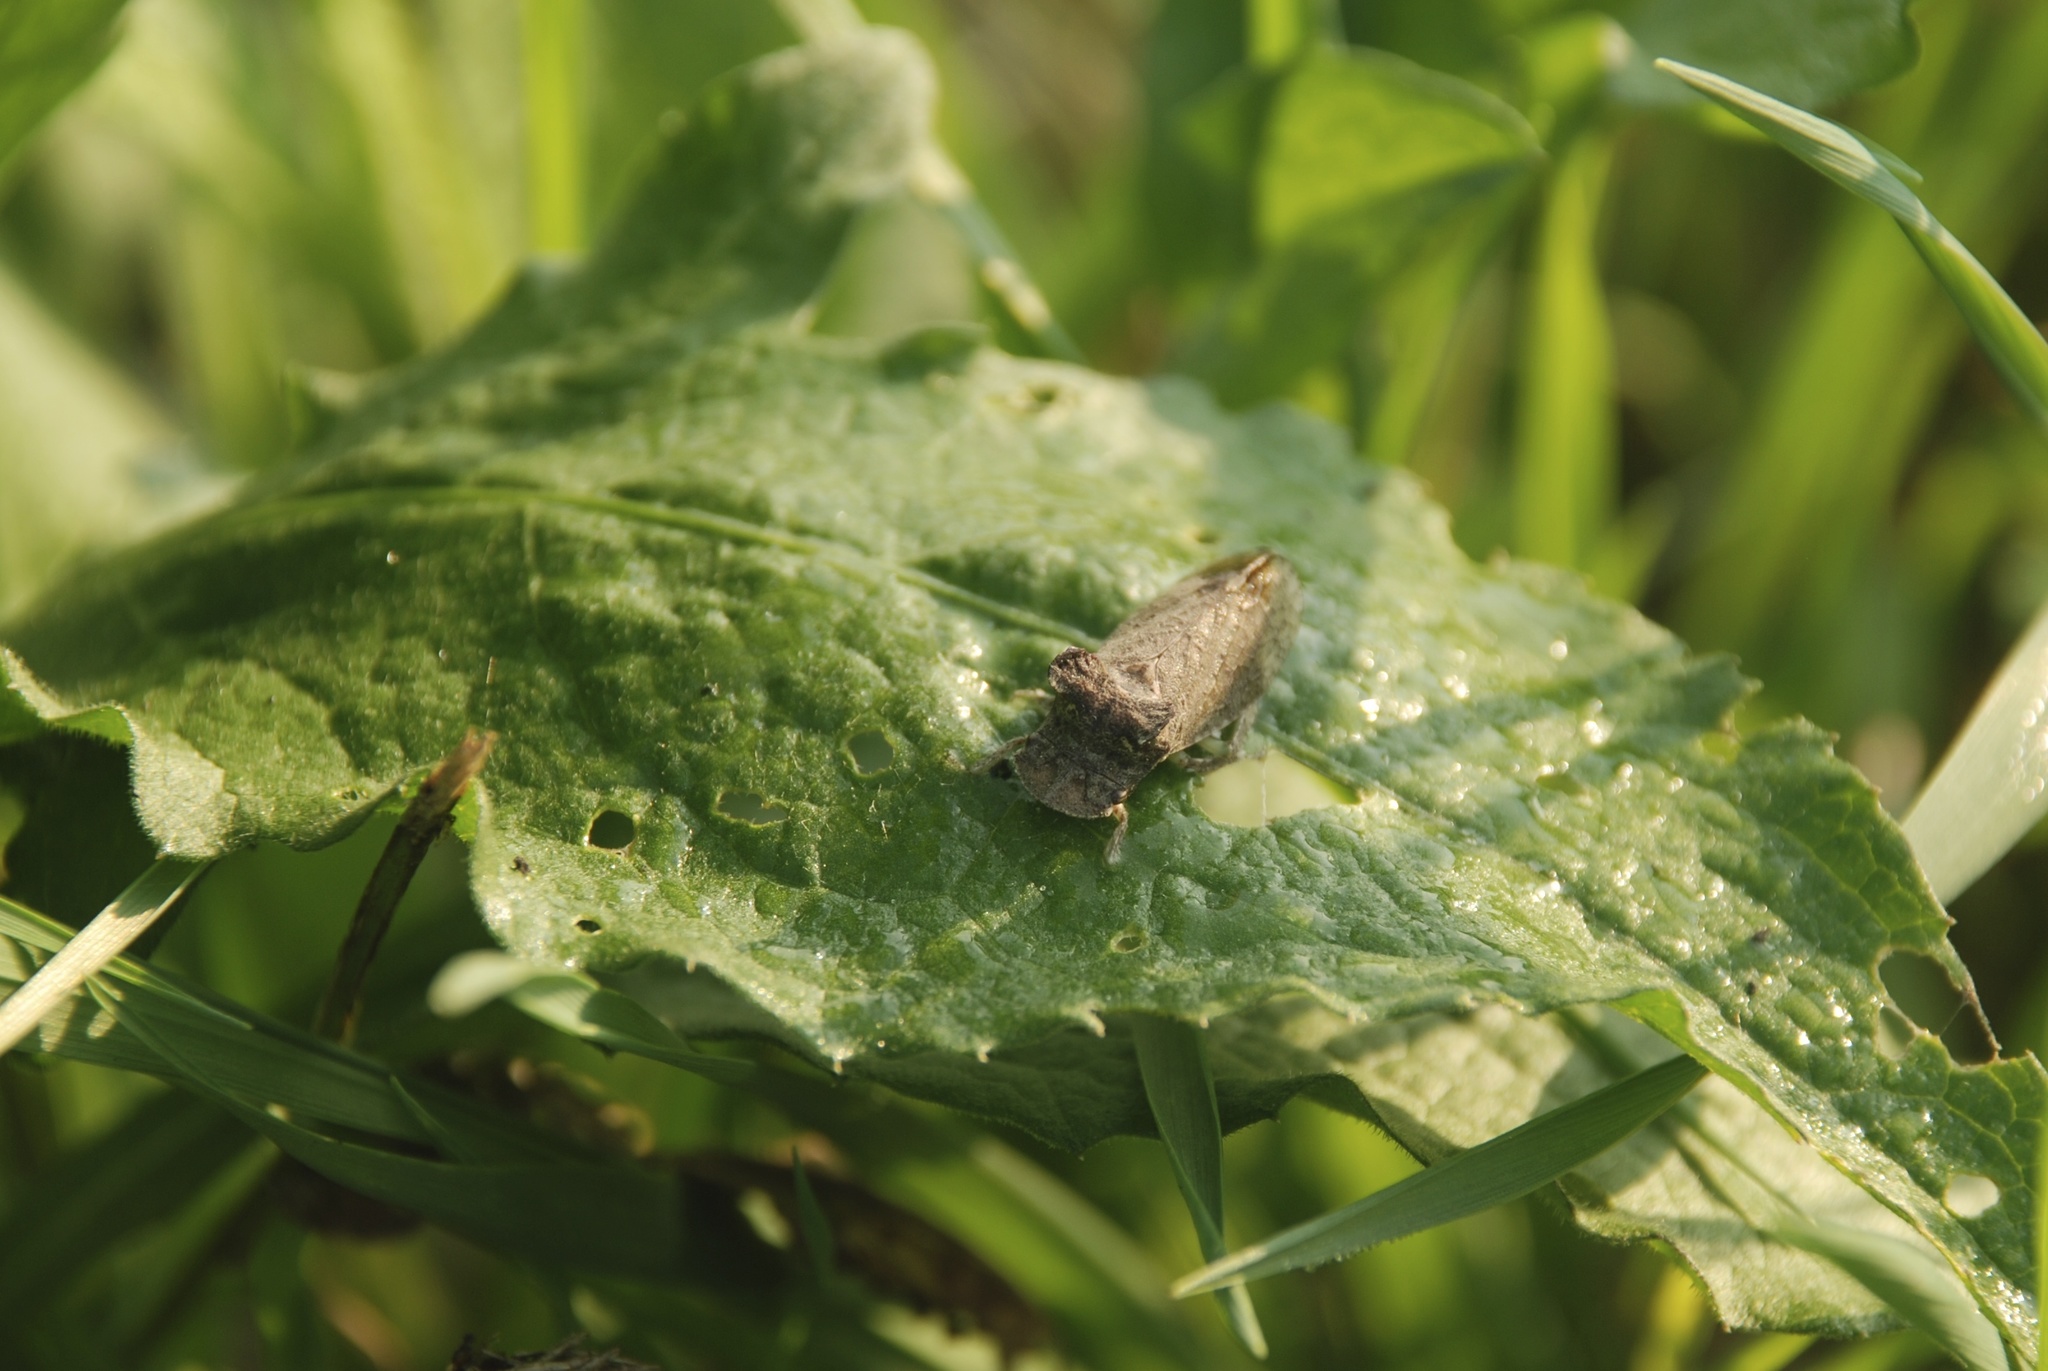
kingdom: Animalia
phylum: Arthropoda
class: Insecta
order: Hemiptera
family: Cicadellidae
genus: Ledra
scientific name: Ledra aurita
